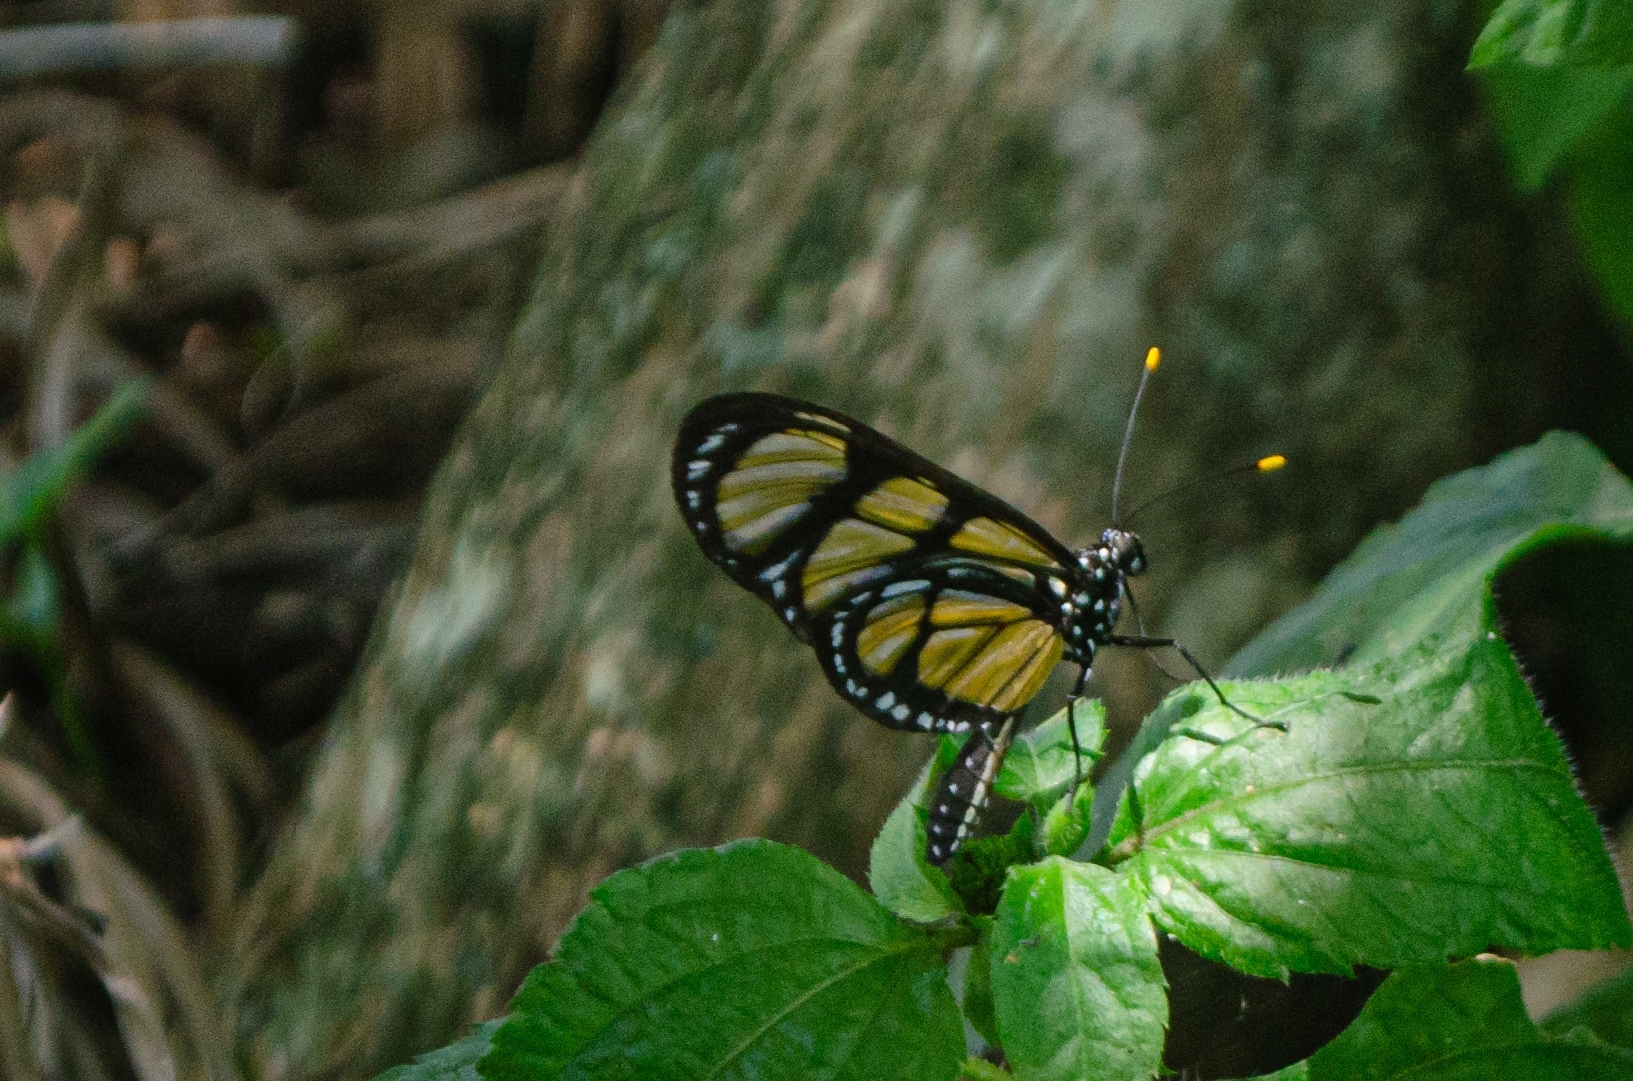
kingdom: Animalia
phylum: Arthropoda
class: Insecta
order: Lepidoptera
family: Nymphalidae
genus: Methona
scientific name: Methona themisto
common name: Themisto amberwing
